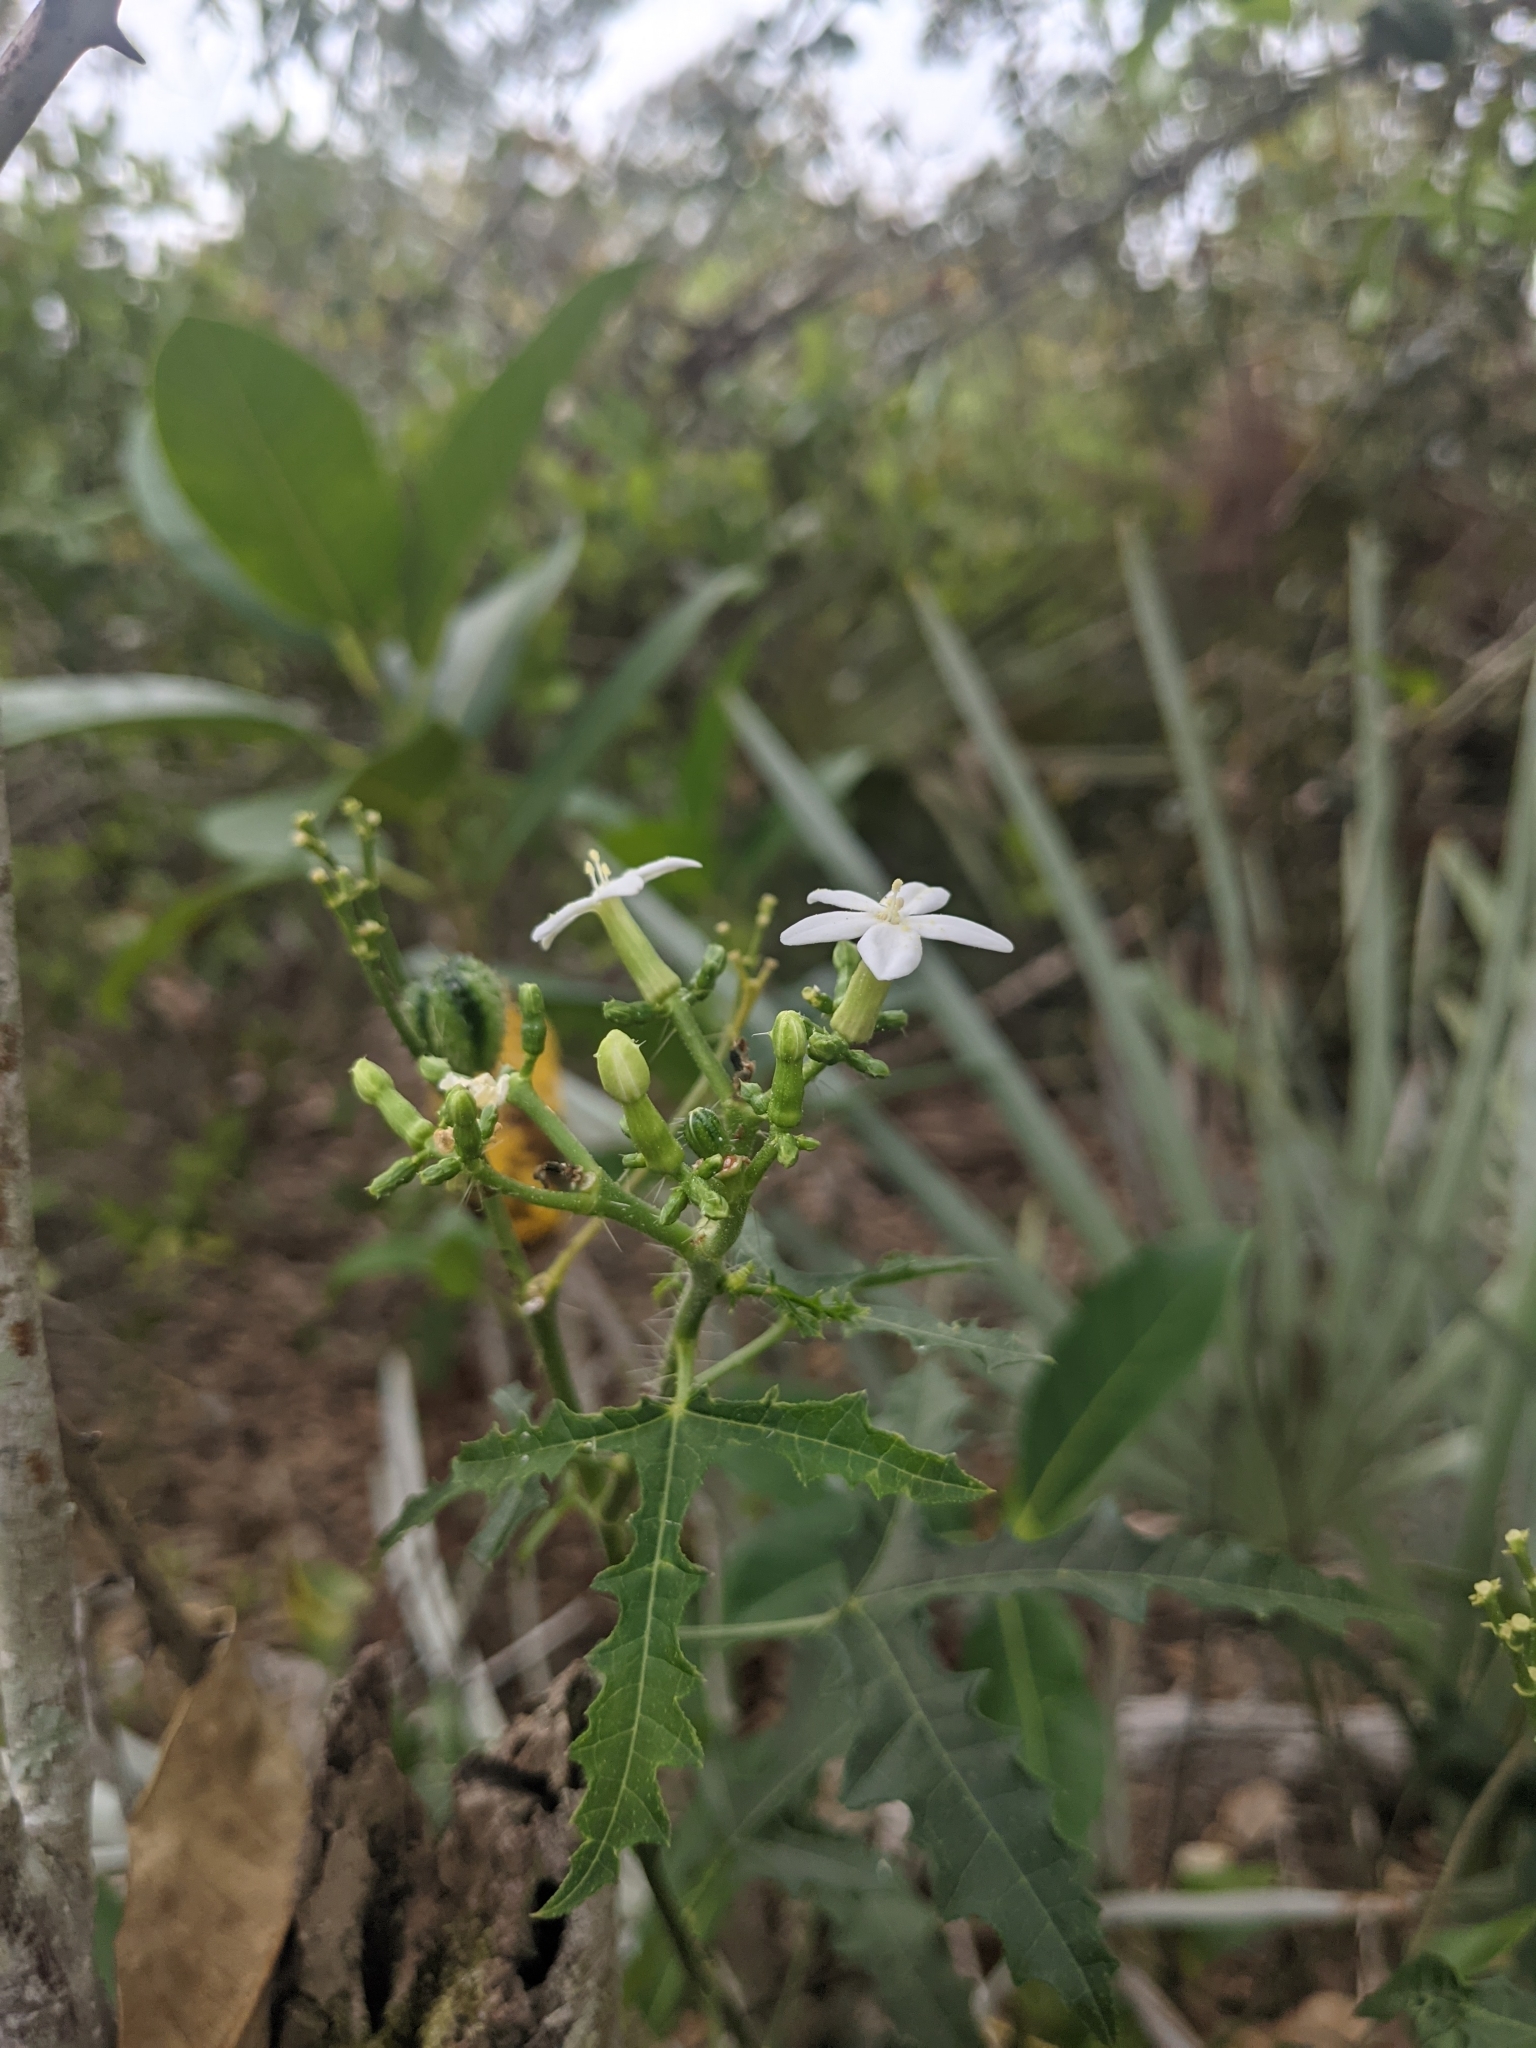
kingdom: Plantae
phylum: Tracheophyta
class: Magnoliopsida
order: Malpighiales
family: Euphorbiaceae
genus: Cnidoscolus
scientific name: Cnidoscolus stimulosus
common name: Bull-nettle
